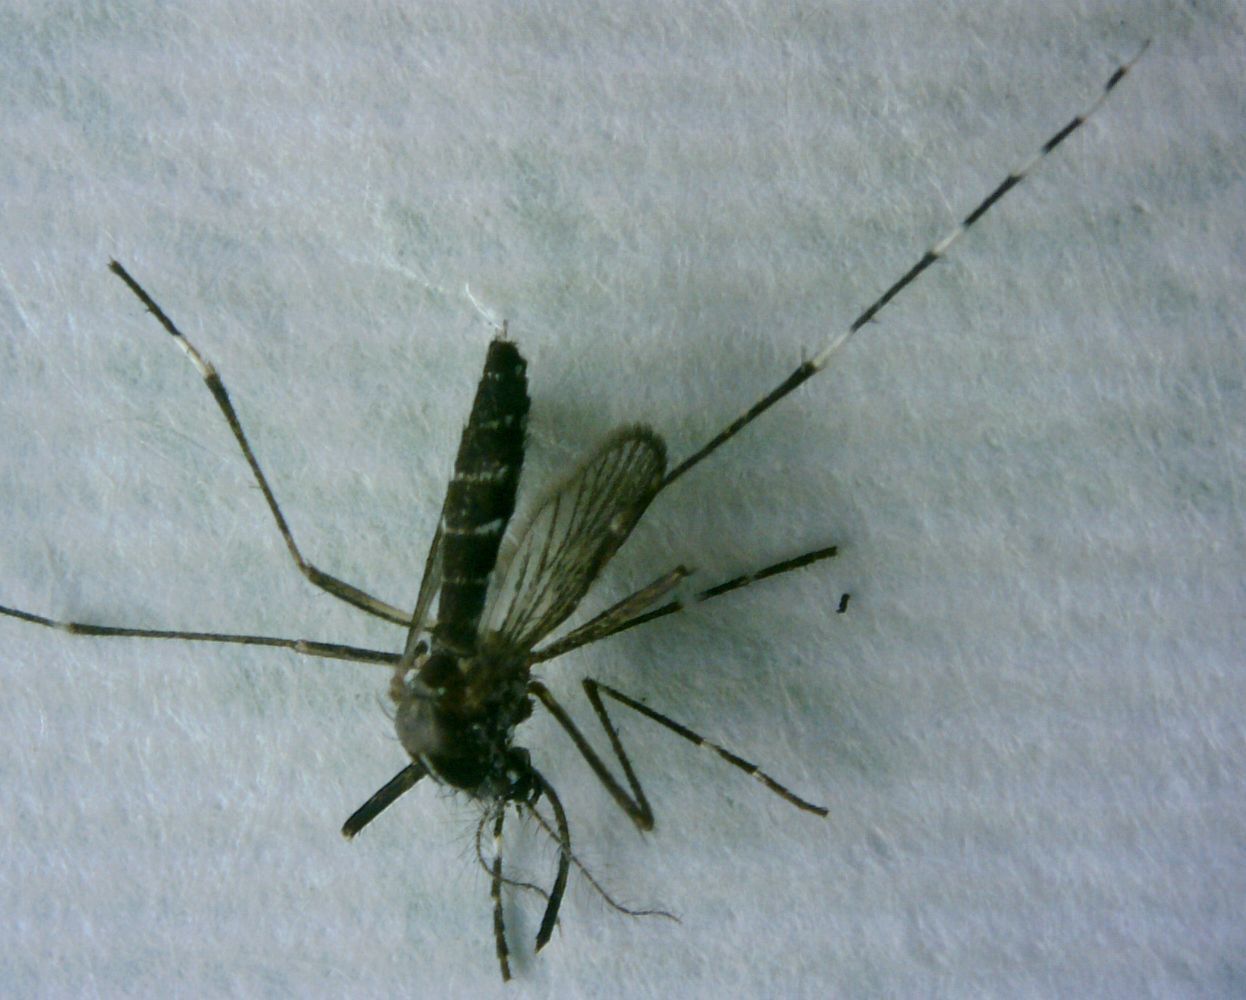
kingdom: Animalia
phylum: Arthropoda
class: Insecta
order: Diptera
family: Culicidae
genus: Aedes
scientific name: Aedes albopictus
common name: Tiger mosquito
